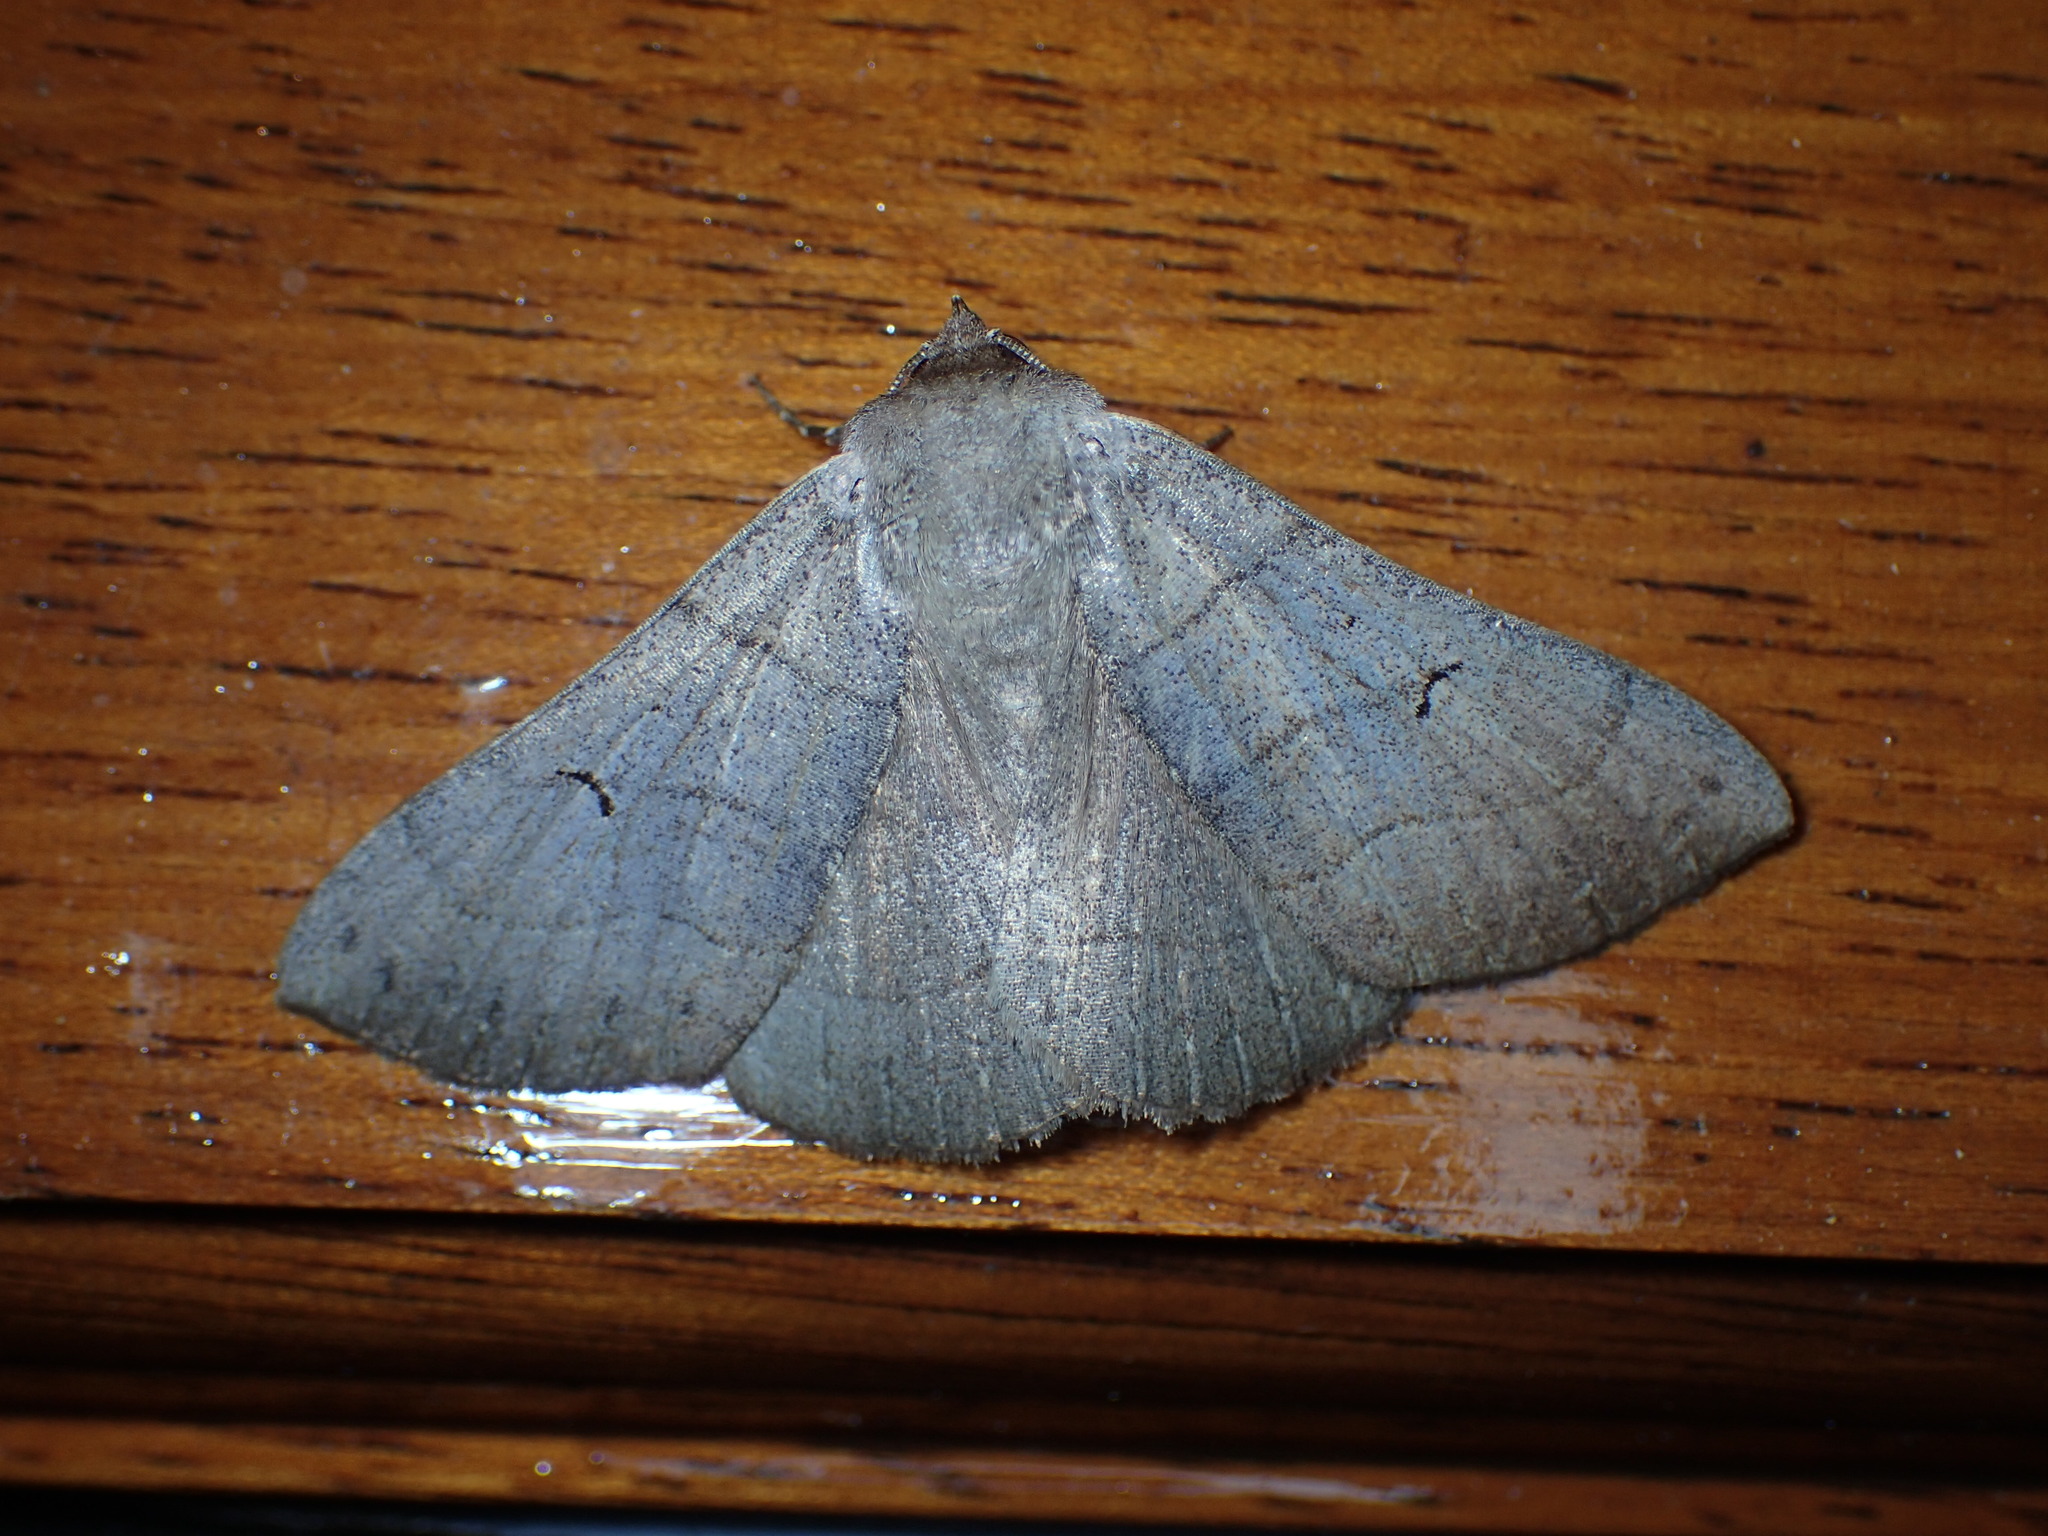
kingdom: Animalia
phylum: Arthropoda
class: Insecta
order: Lepidoptera
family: Erebidae
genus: Panopoda
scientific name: Panopoda carneicosta
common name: Brown panopoda moth
